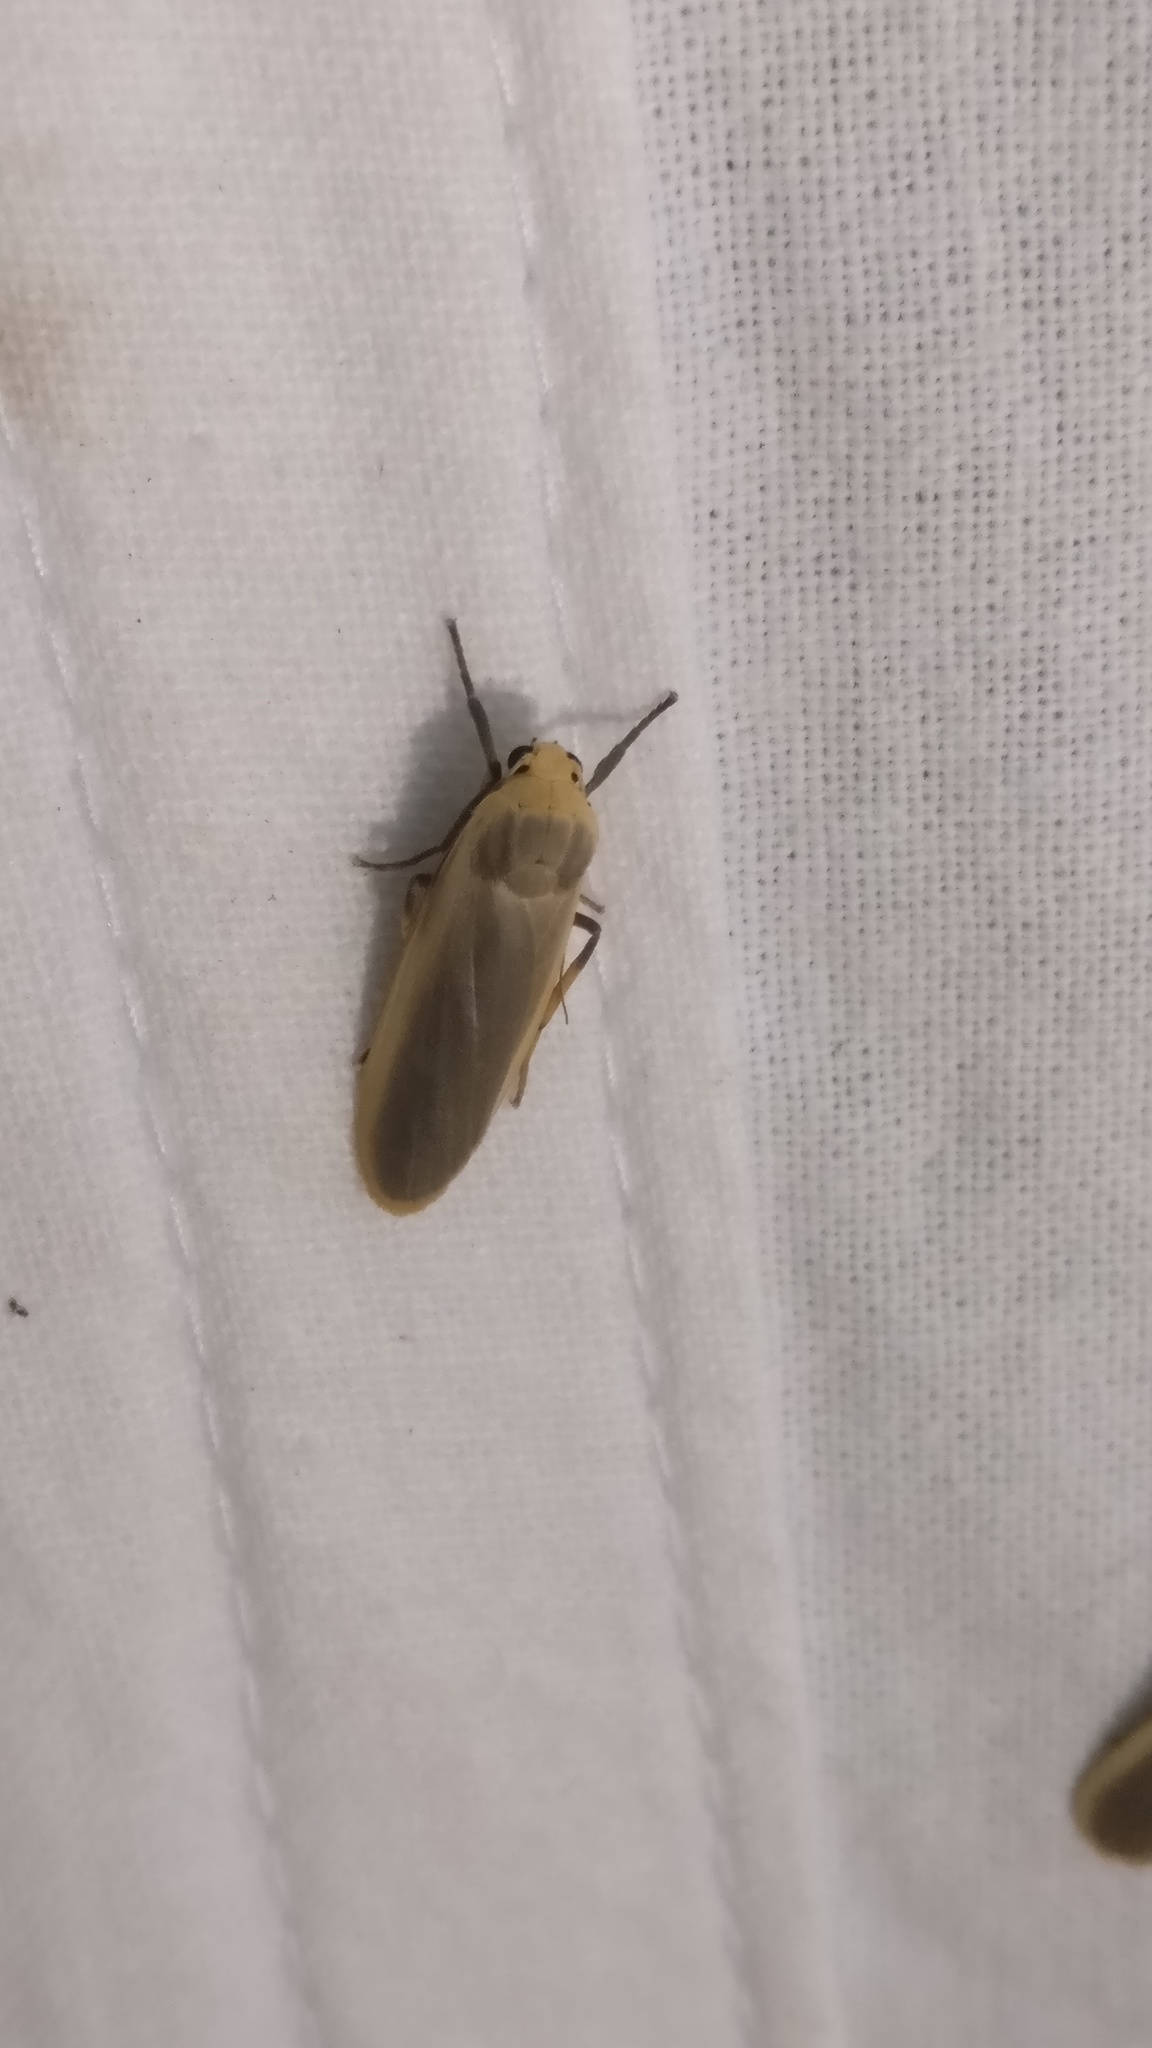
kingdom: Animalia
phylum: Arthropoda
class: Insecta
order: Lepidoptera
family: Erebidae
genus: Brunia
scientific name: Brunia antica
